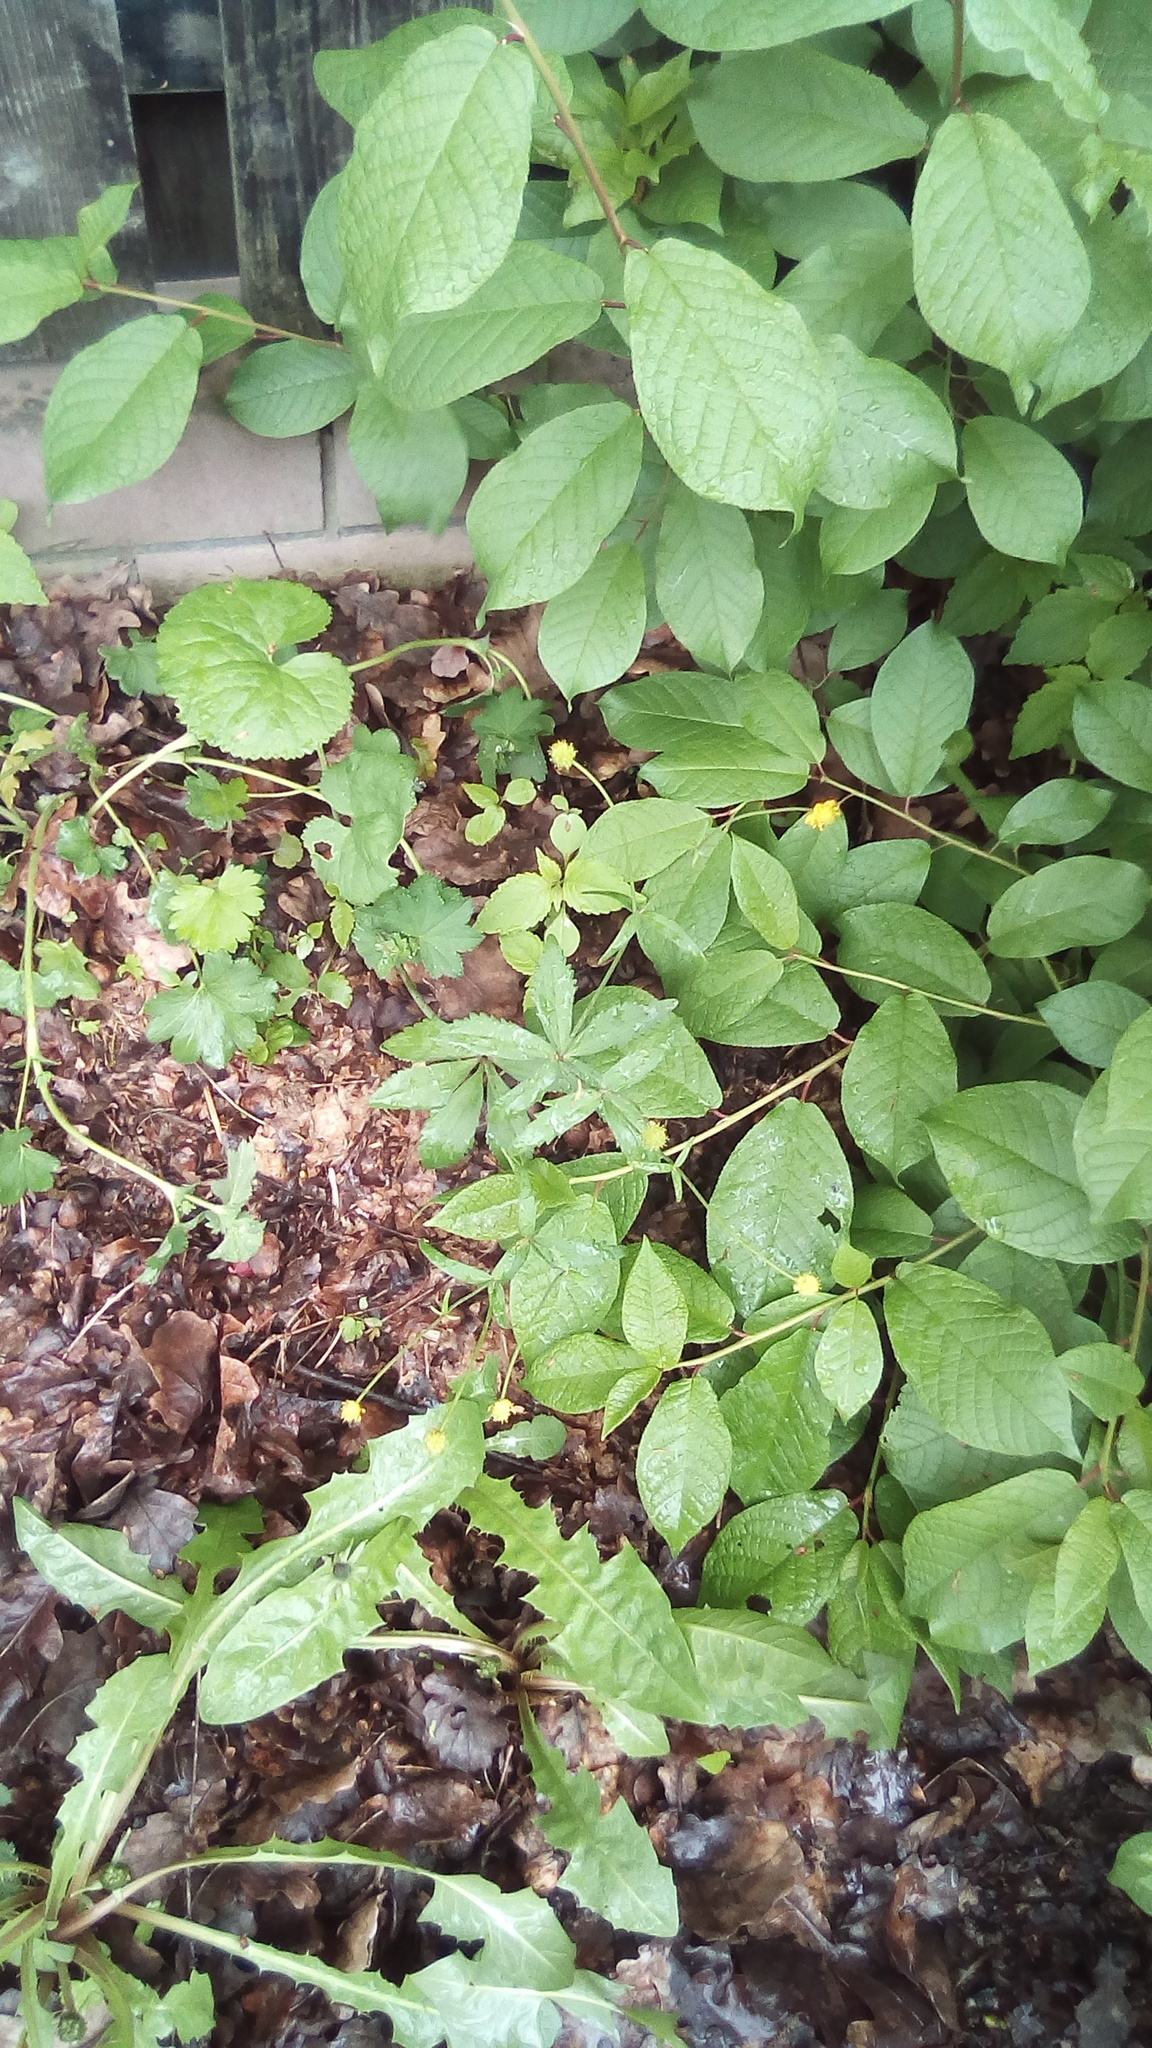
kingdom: Plantae
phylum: Tracheophyta
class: Magnoliopsida
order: Ranunculales
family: Ranunculaceae
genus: Ranunculus
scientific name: Ranunculus cassubicus
